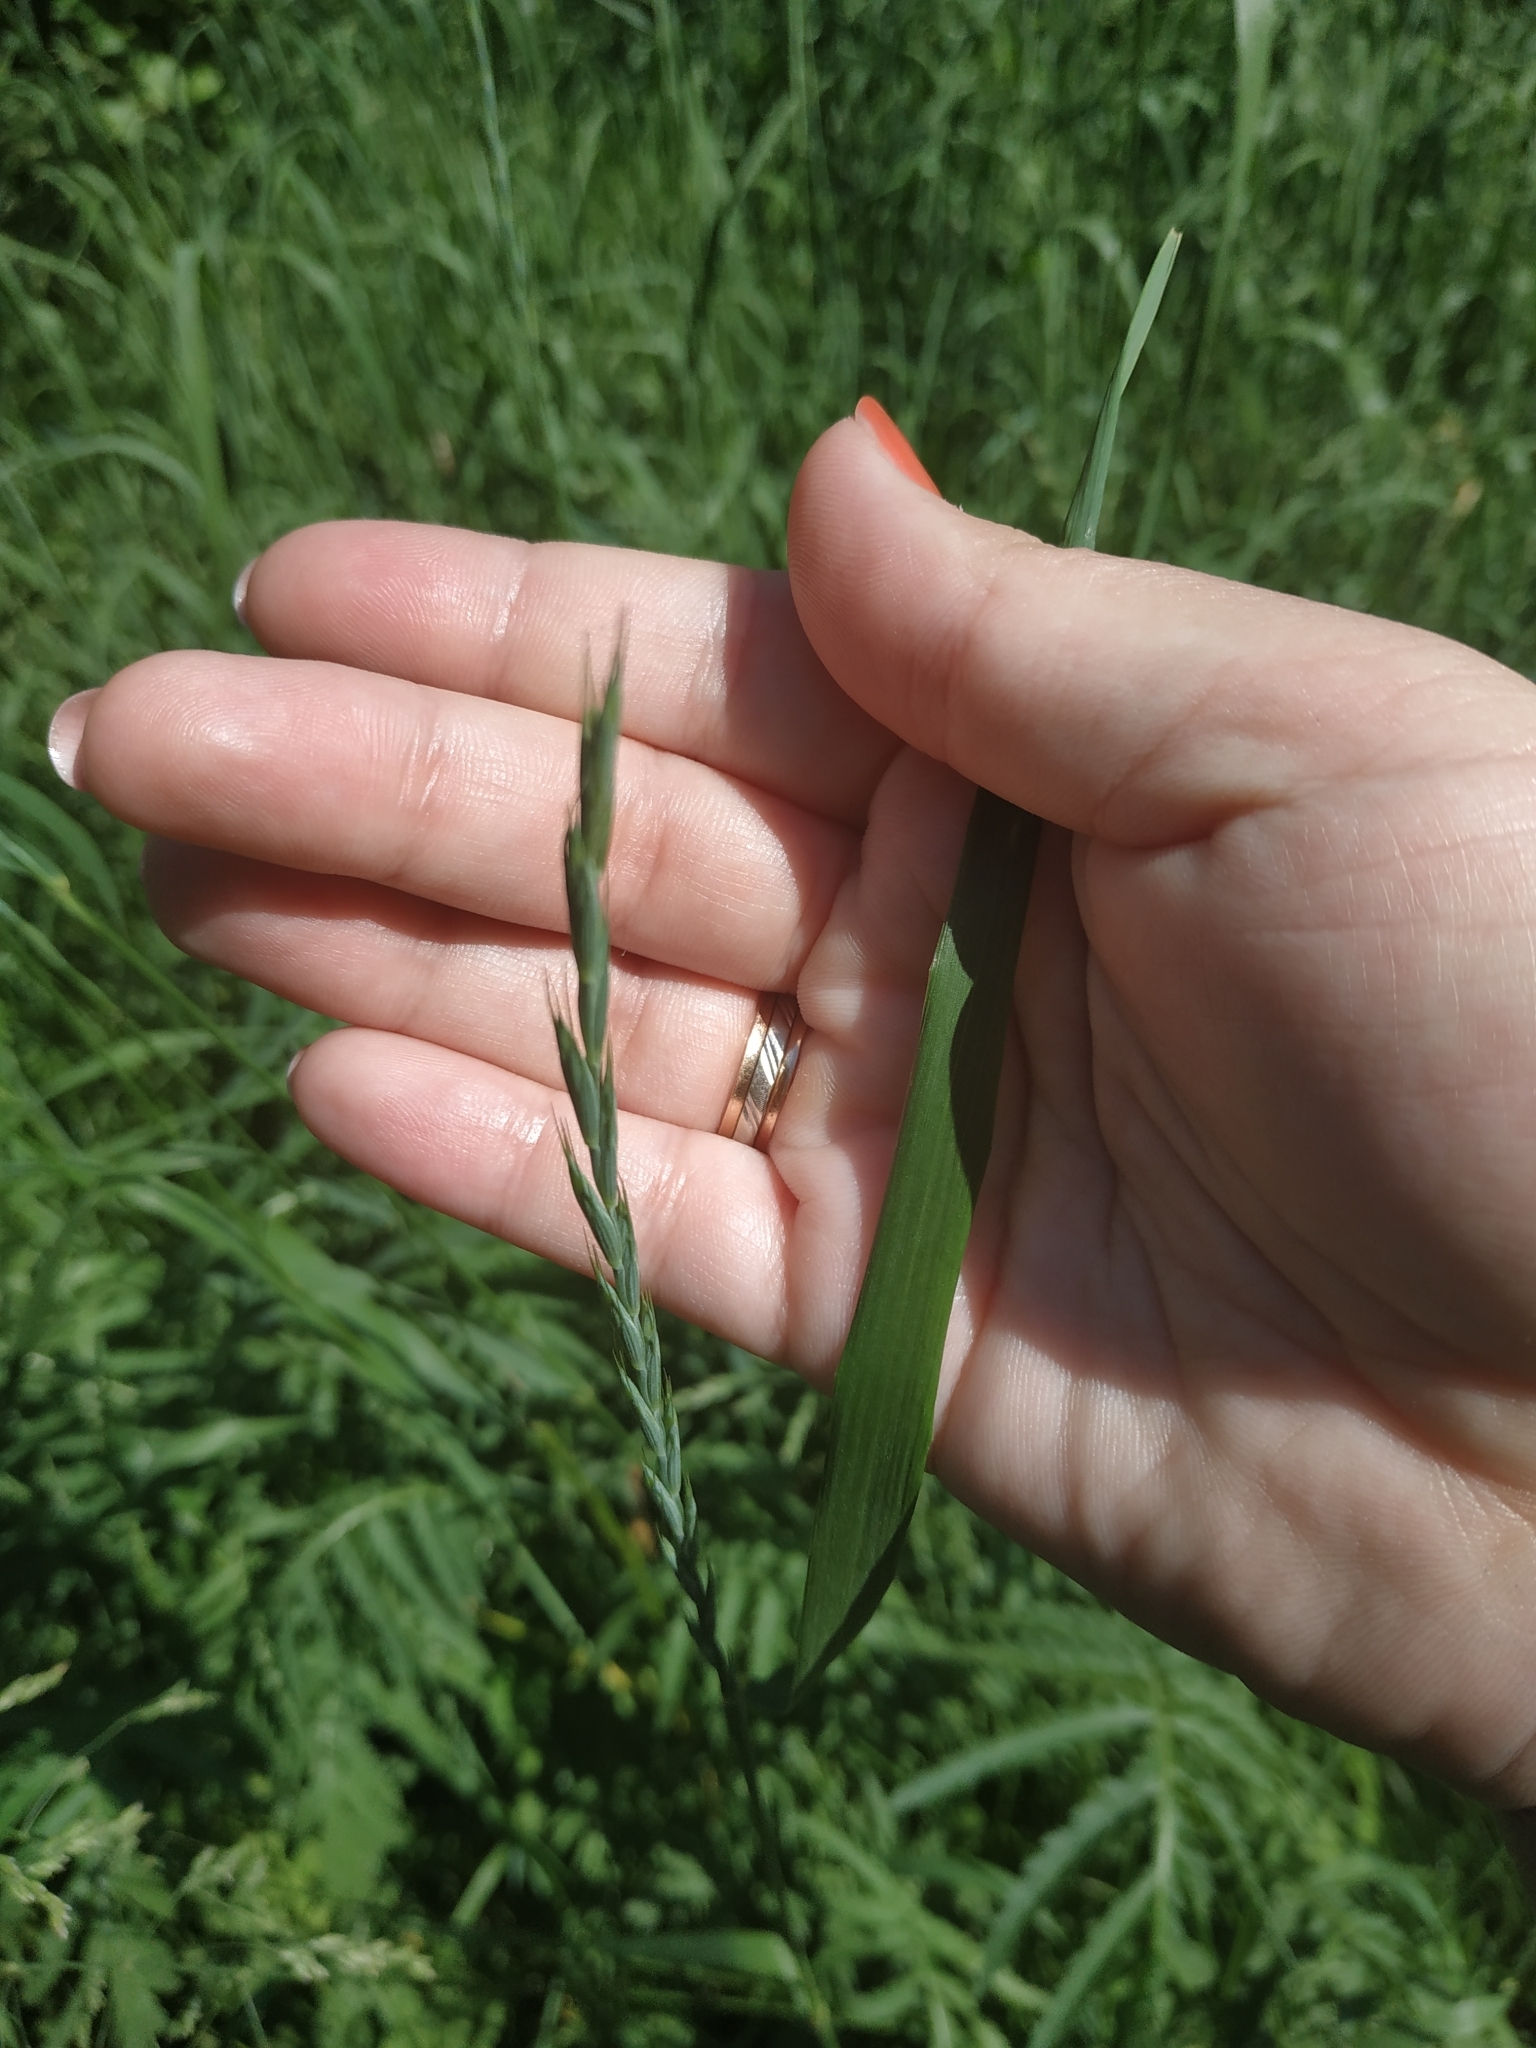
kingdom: Plantae
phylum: Tracheophyta
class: Liliopsida
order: Poales
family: Poaceae
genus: Elymus
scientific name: Elymus repens
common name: Quackgrass
